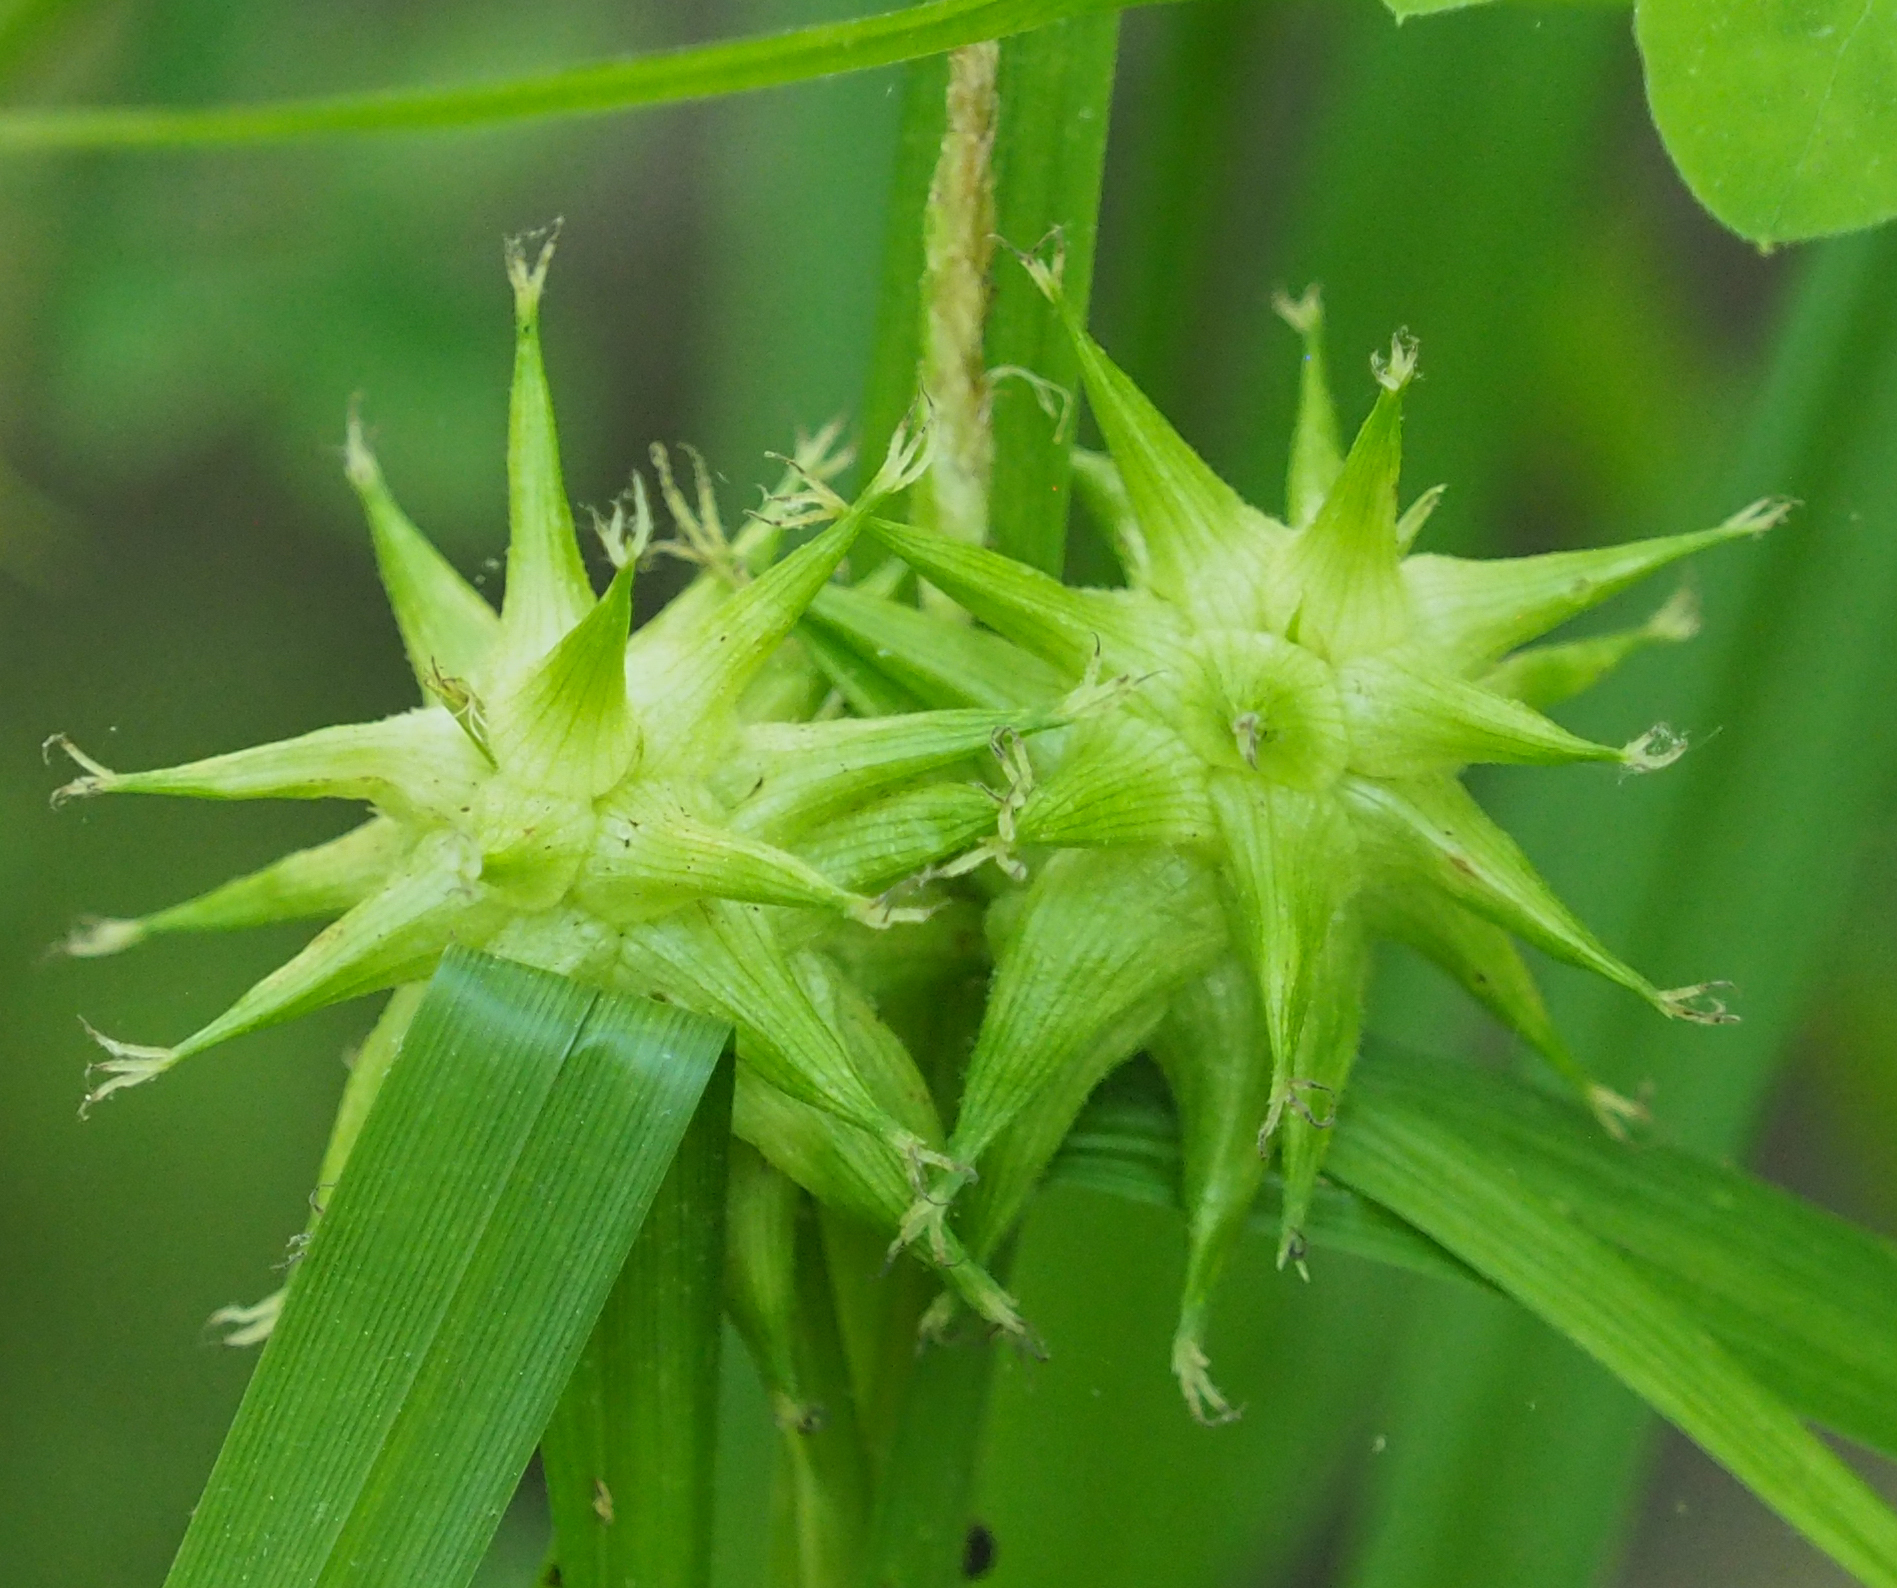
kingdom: Plantae
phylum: Tracheophyta
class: Liliopsida
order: Poales
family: Cyperaceae
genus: Carex
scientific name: Carex grayi
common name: Asa gray's sedge
